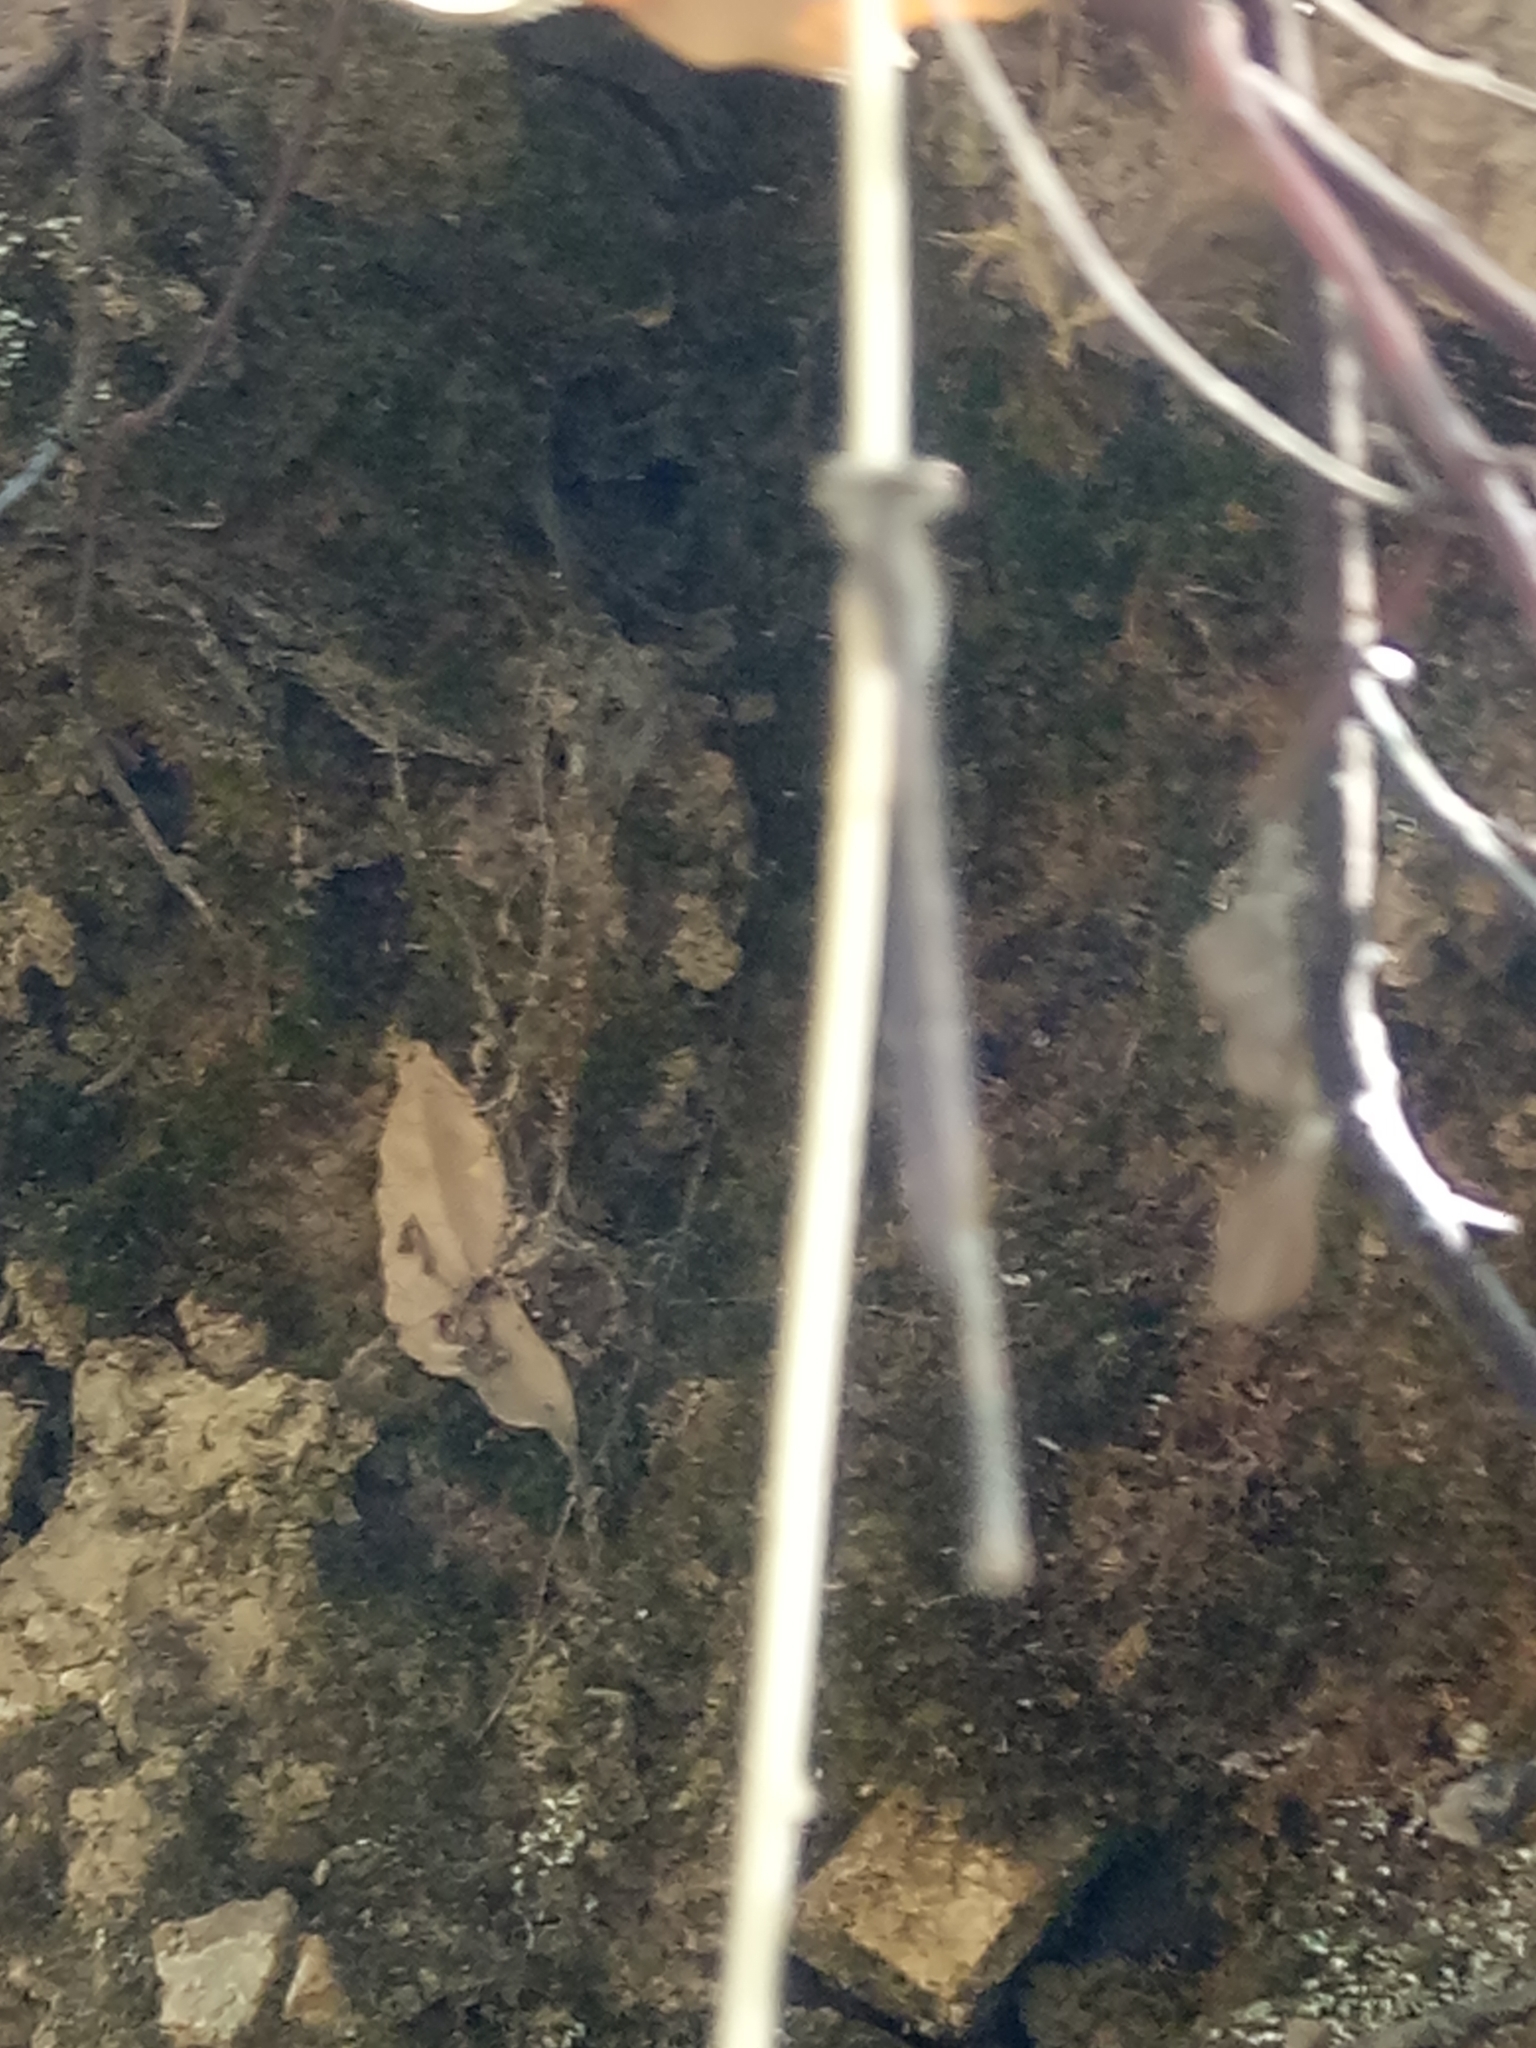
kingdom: Animalia
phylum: Arthropoda
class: Insecta
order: Odonata
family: Lestidae
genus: Sympecma
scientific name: Sympecma fusca
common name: Common winter damsel
